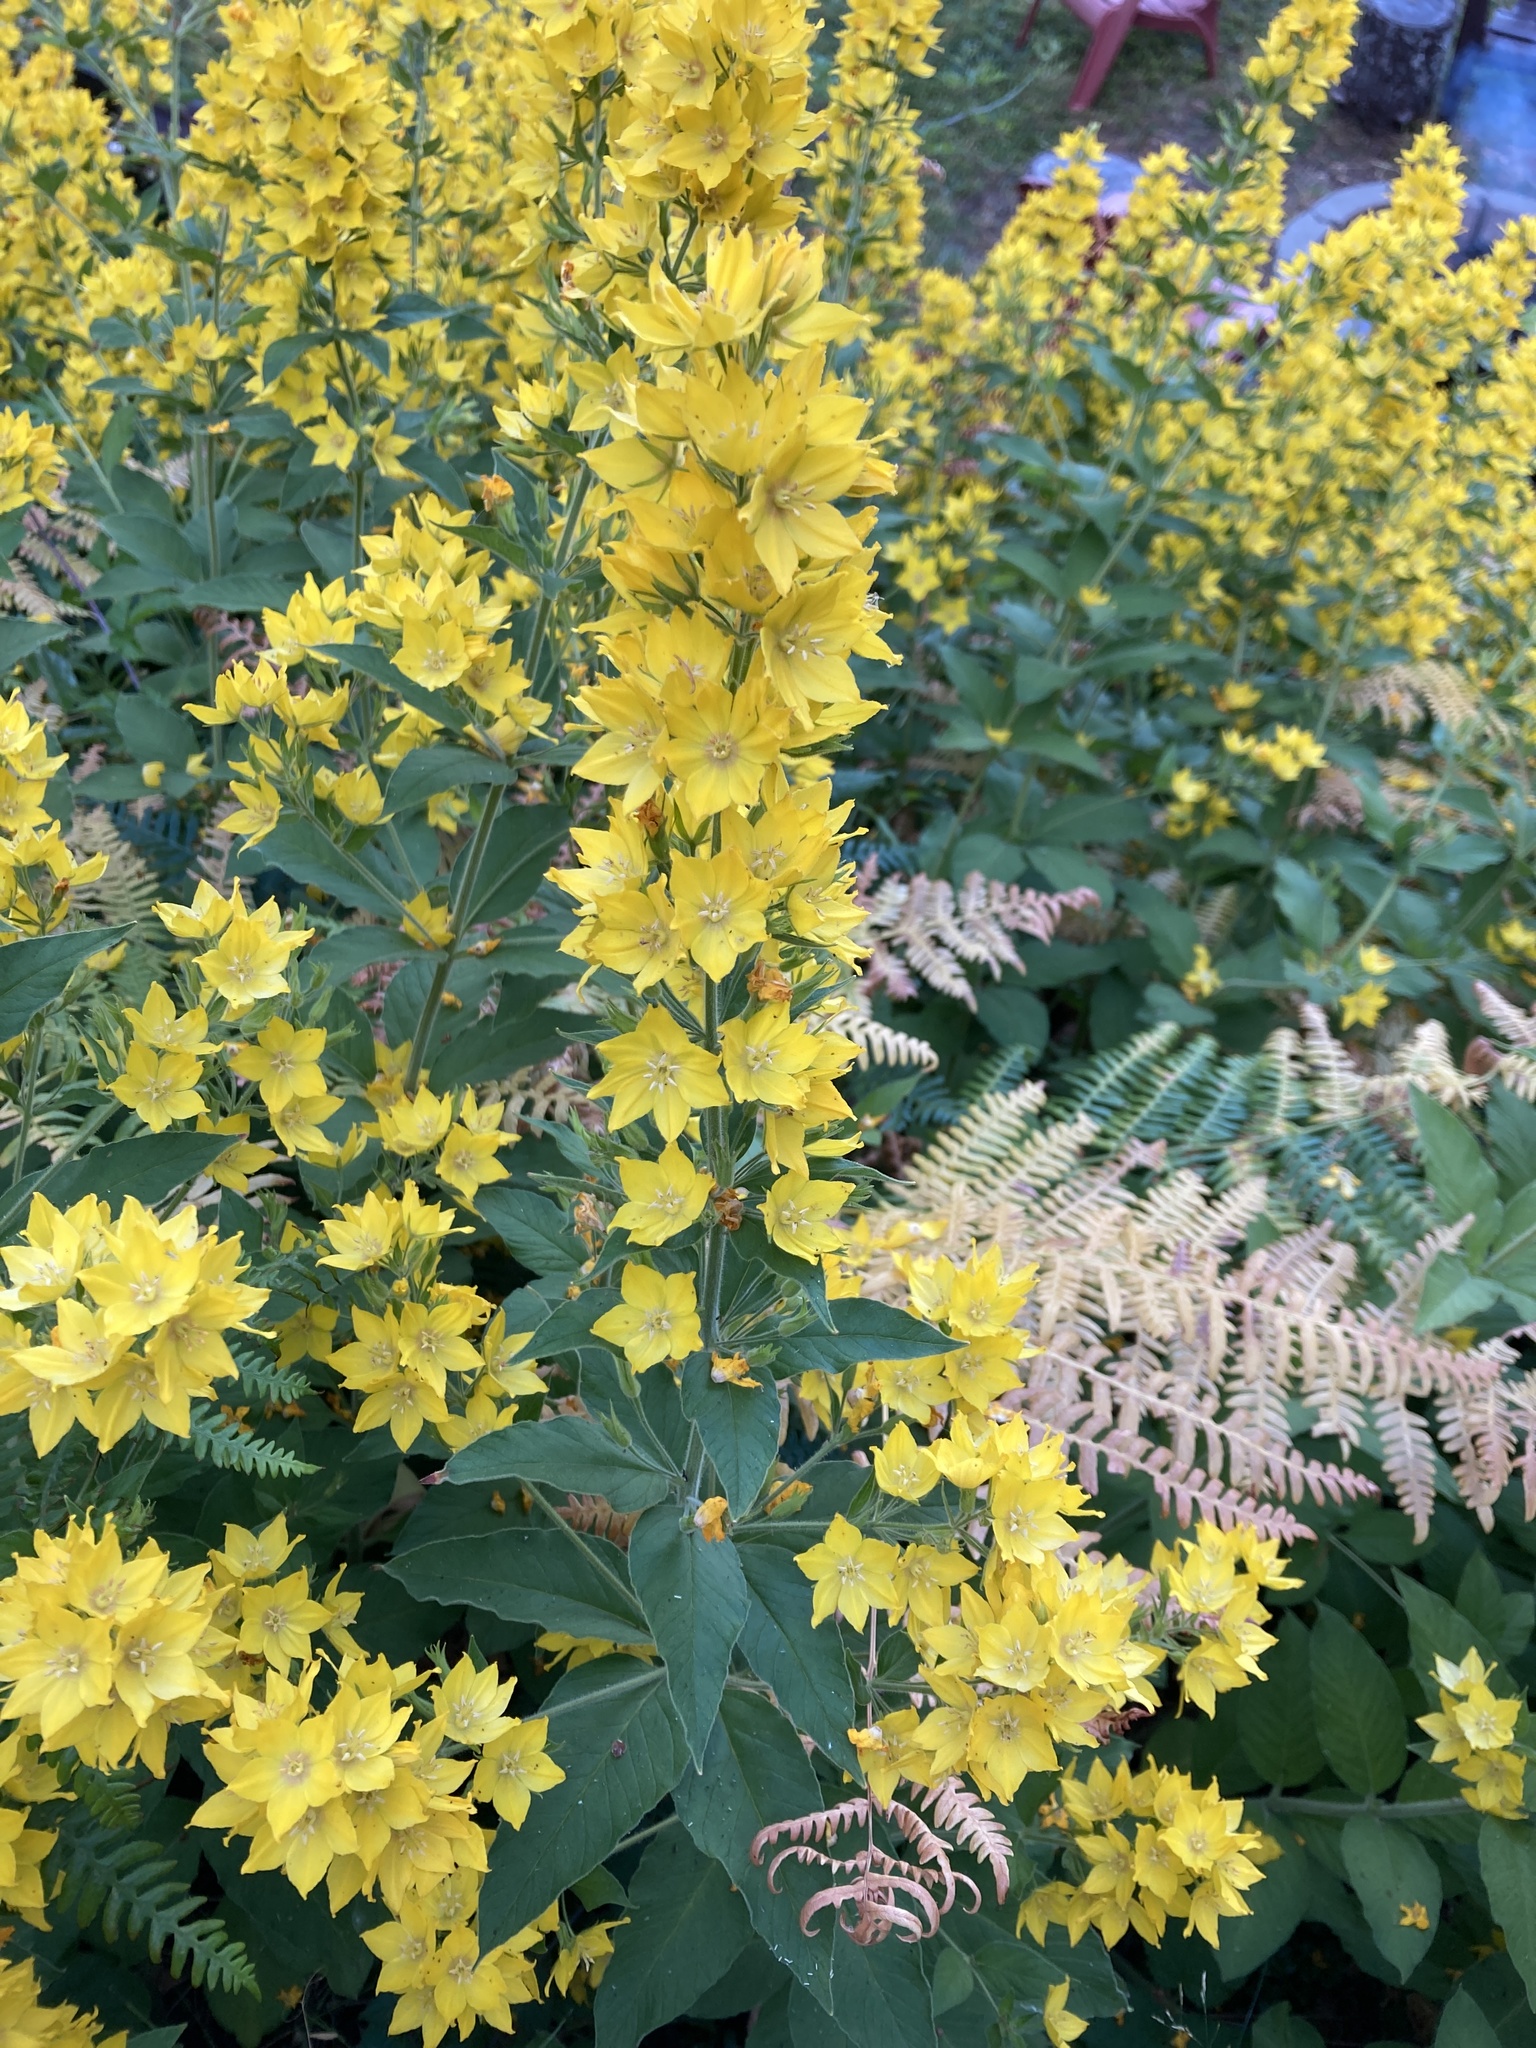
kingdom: Plantae
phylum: Tracheophyta
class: Magnoliopsida
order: Ericales
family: Primulaceae
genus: Lysimachia
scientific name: Lysimachia punctata
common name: Dotted loosestrife
